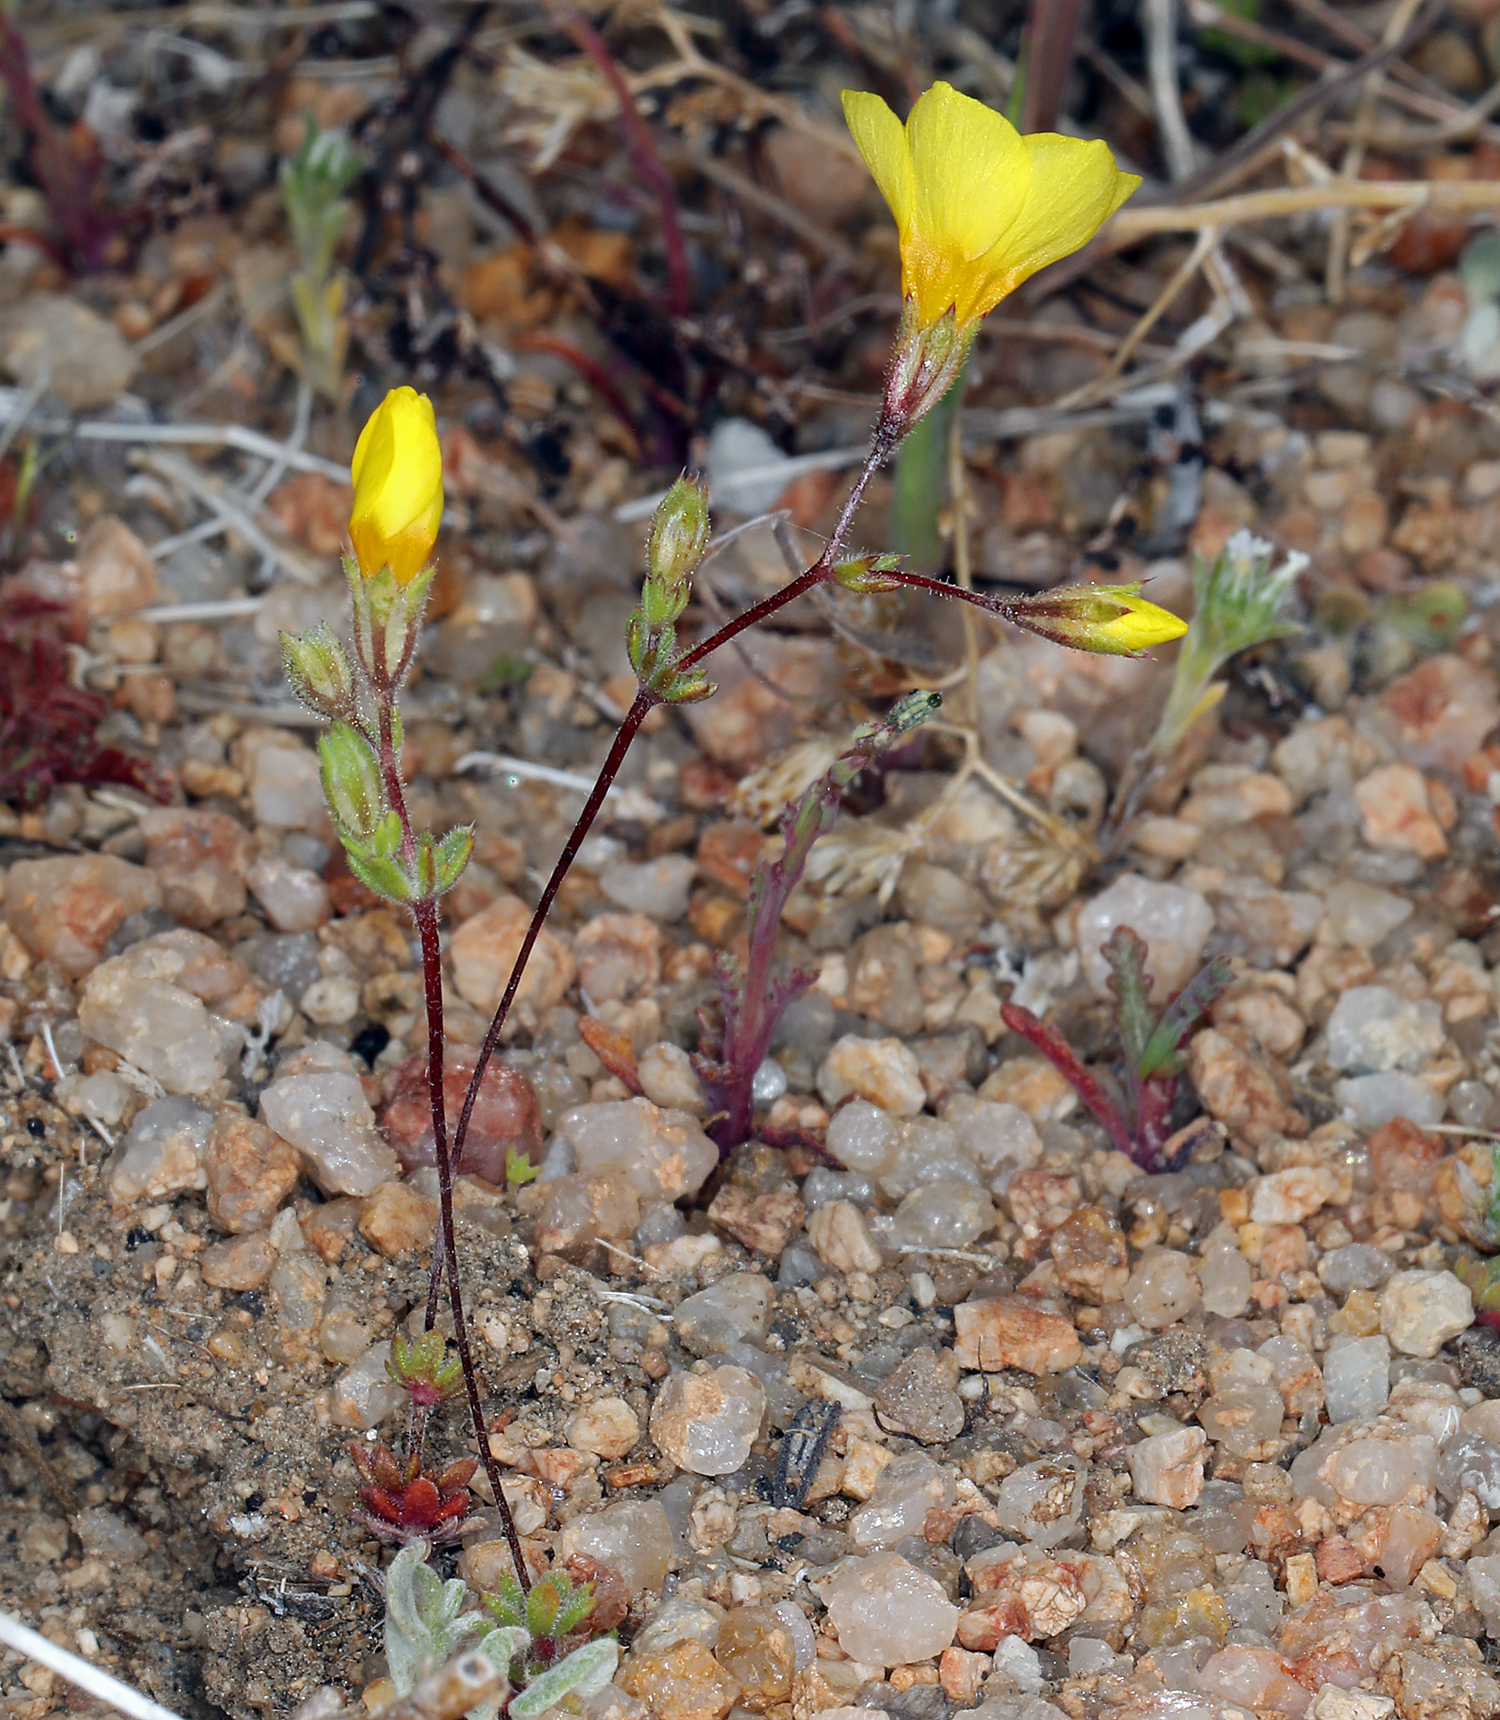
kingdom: Plantae
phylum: Tracheophyta
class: Magnoliopsida
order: Ericales
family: Polemoniaceae
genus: Leptosiphon
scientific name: Leptosiphon chrysanthus
